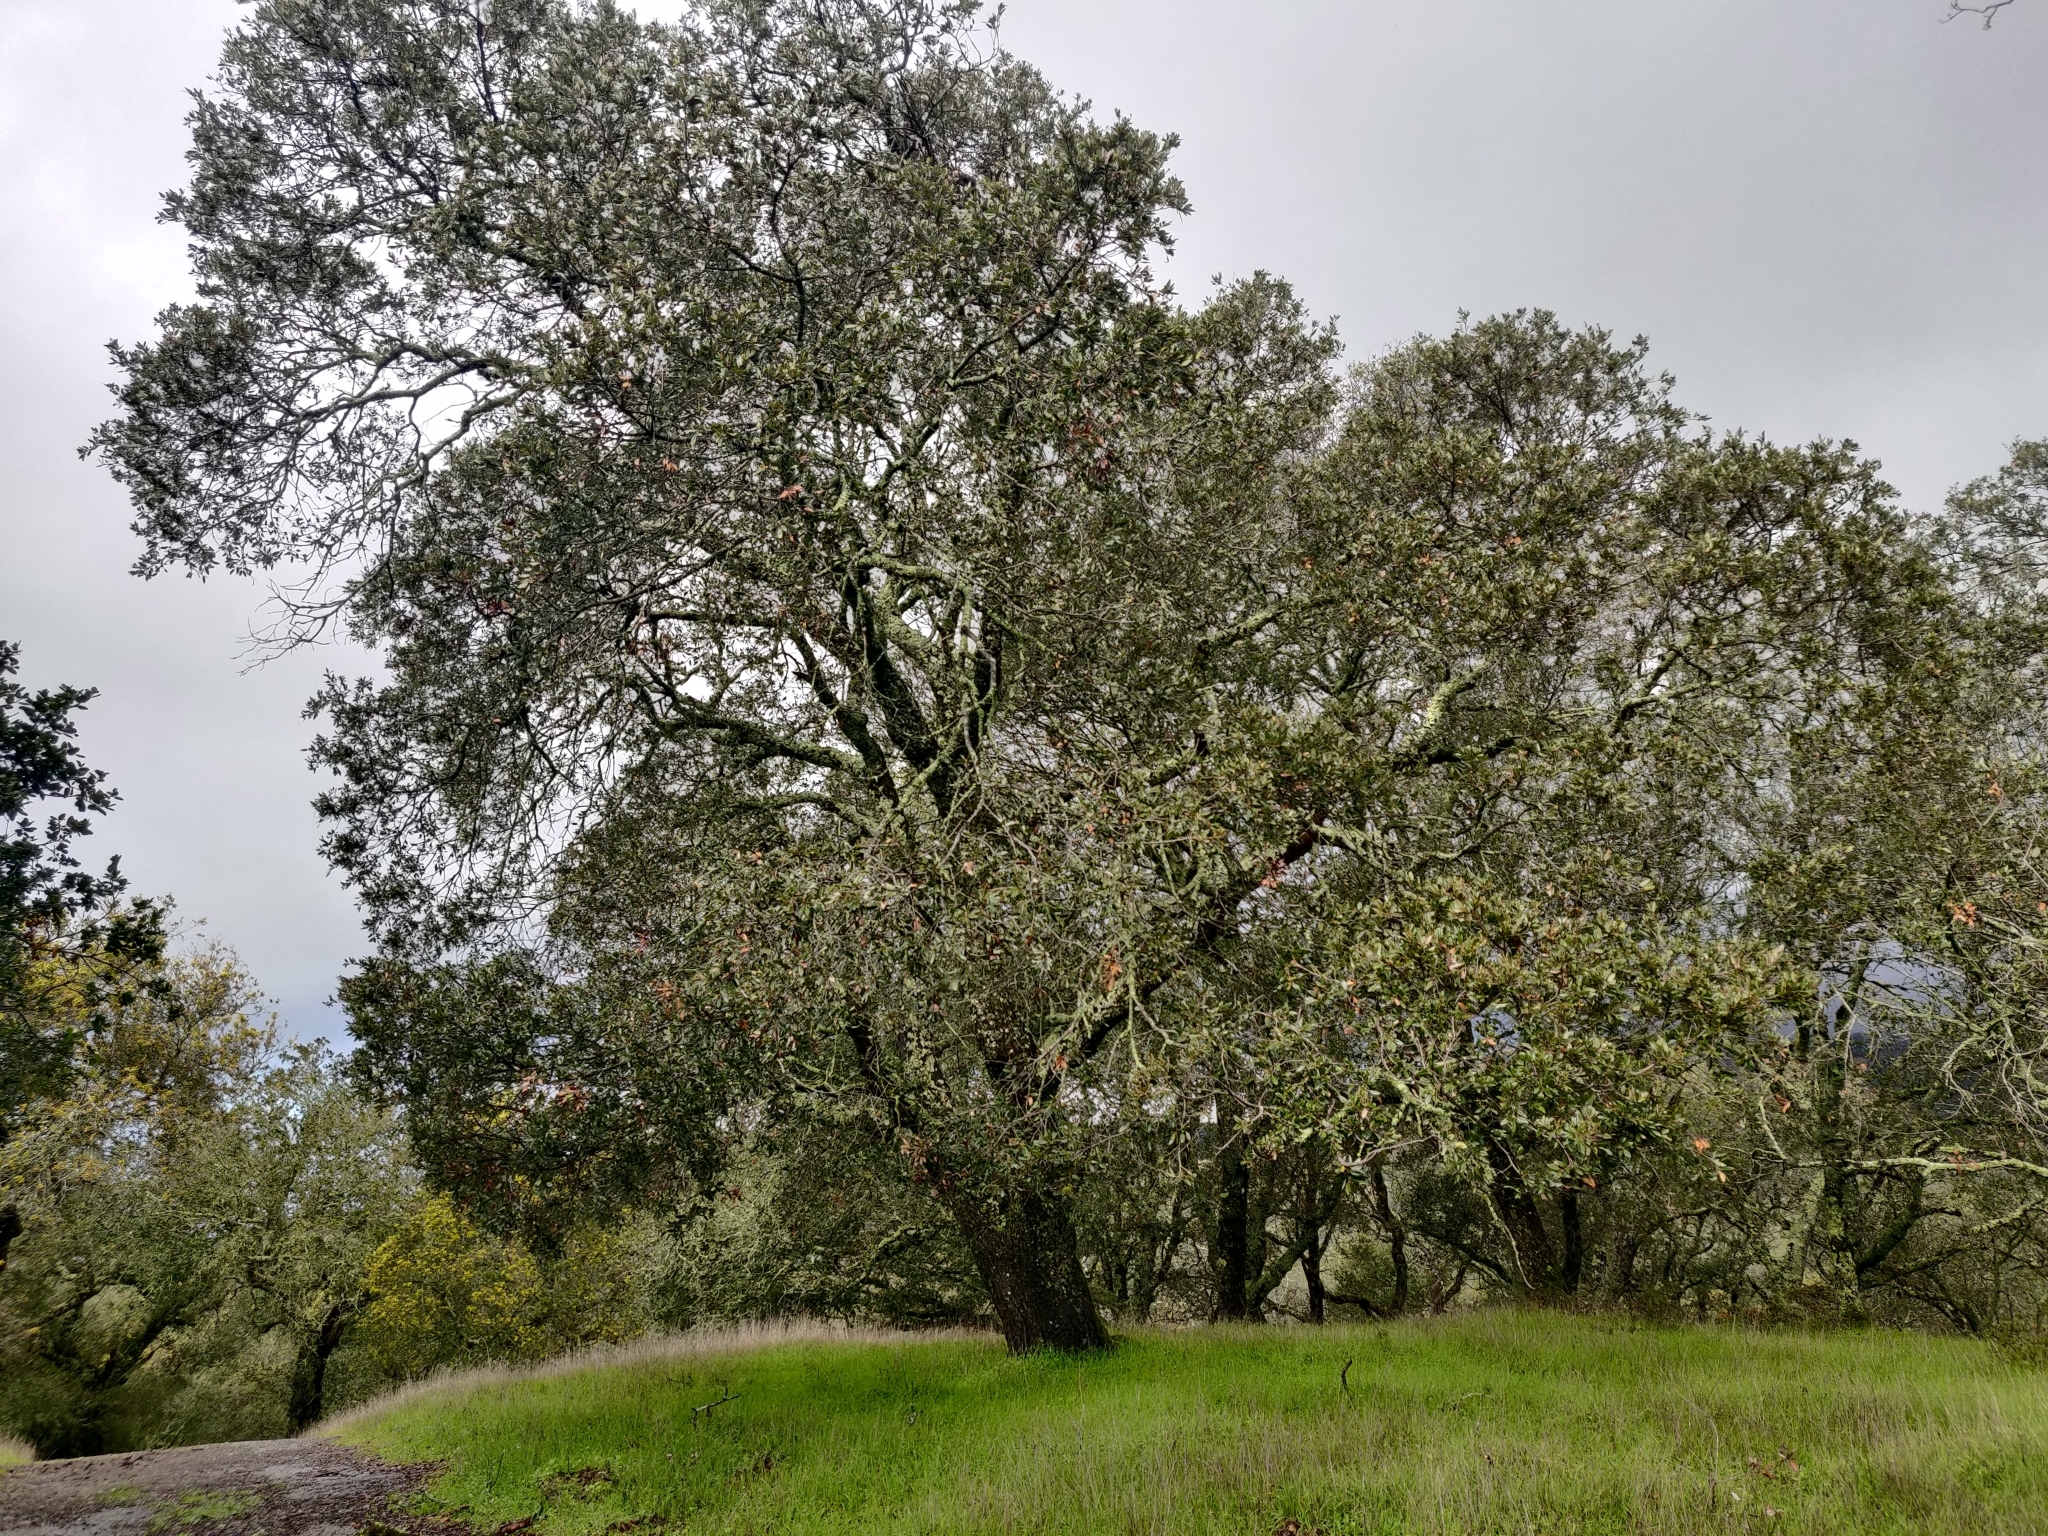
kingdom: Plantae
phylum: Tracheophyta
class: Magnoliopsida
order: Fagales
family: Fagaceae
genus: Quercus
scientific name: Quercus chrysolepis
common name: Canyon live oak
